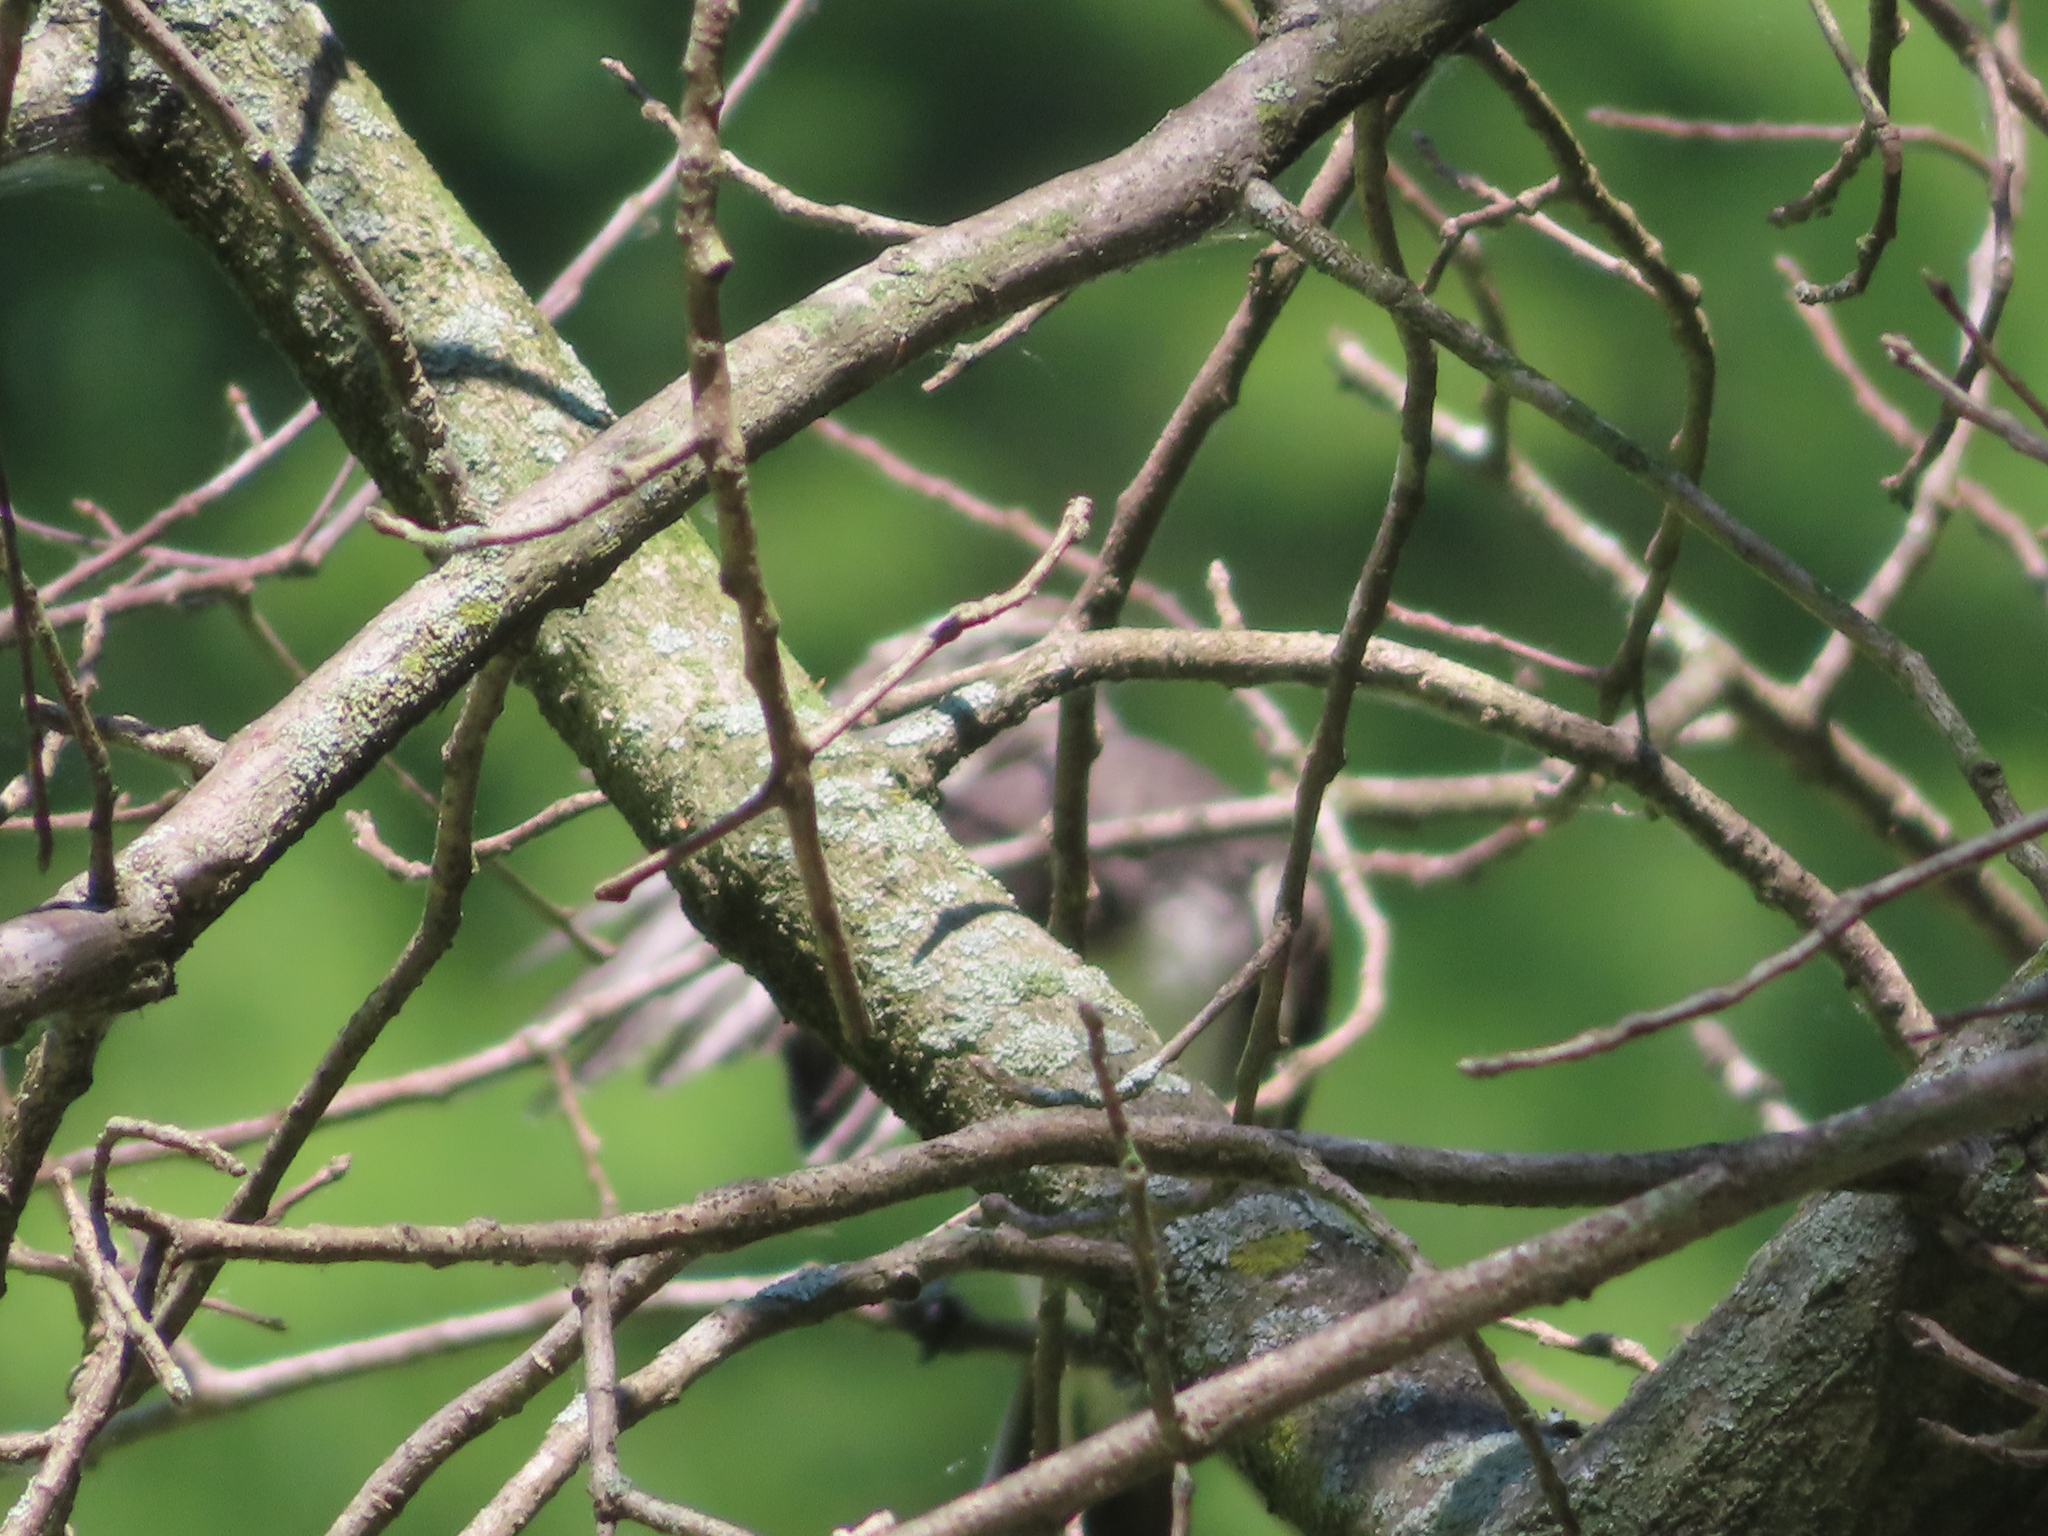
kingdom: Animalia
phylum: Chordata
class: Aves
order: Passeriformes
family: Tyrannidae
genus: Tyrannus
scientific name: Tyrannus tyrannus
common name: Eastern kingbird
